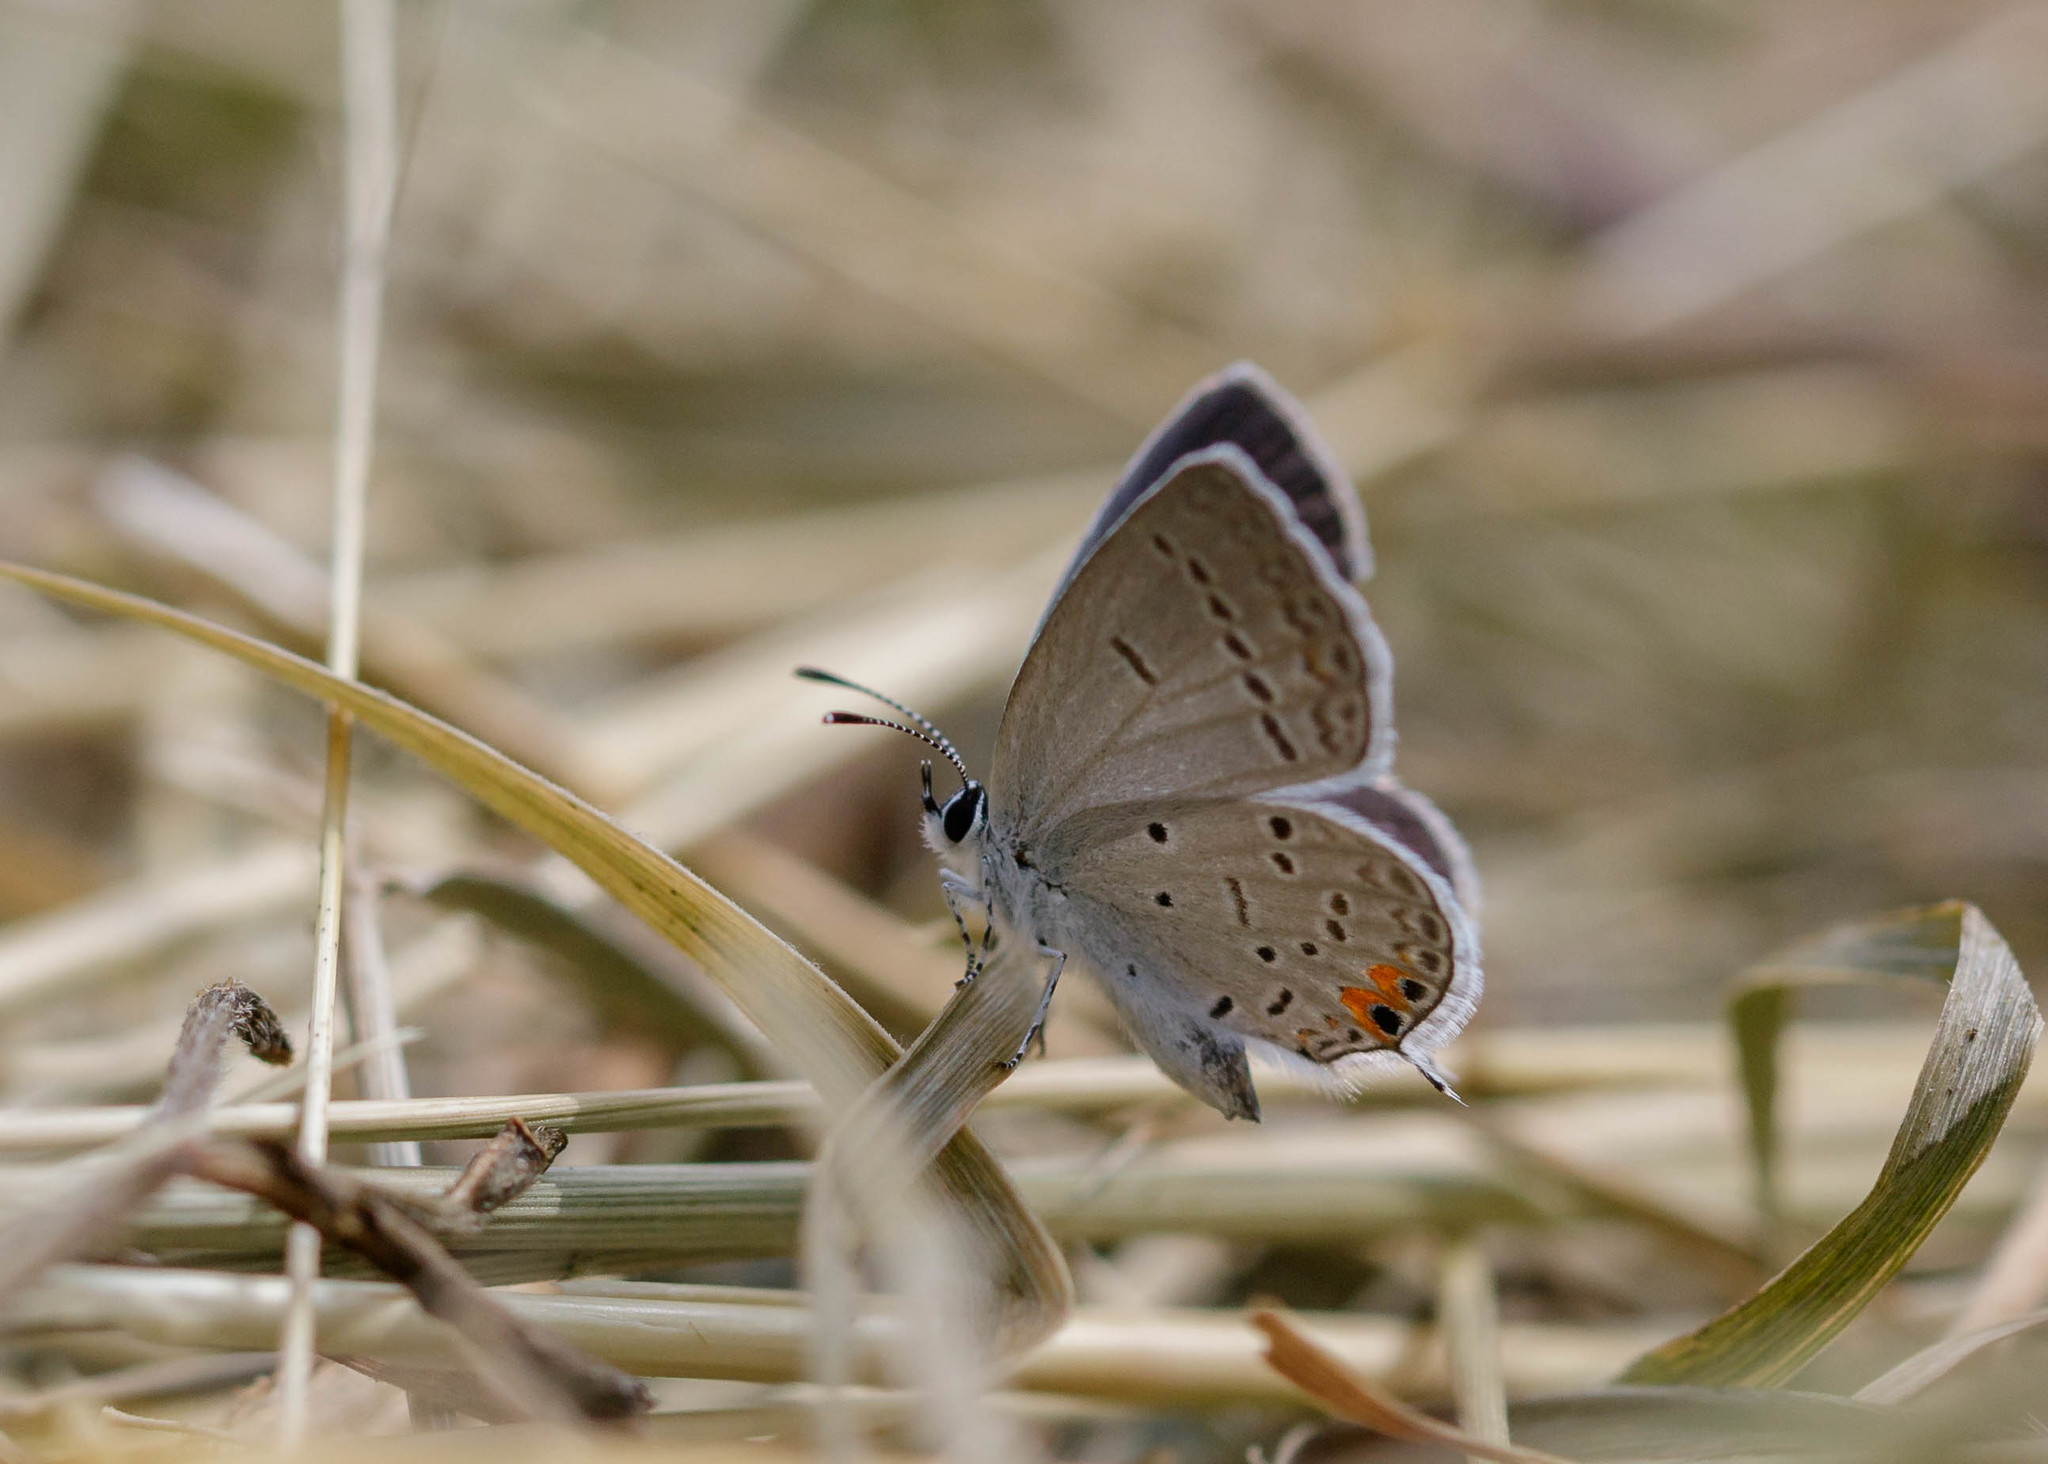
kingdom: Animalia
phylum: Arthropoda
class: Insecta
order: Lepidoptera
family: Lycaenidae
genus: Elkalyce
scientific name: Elkalyce comyntas
